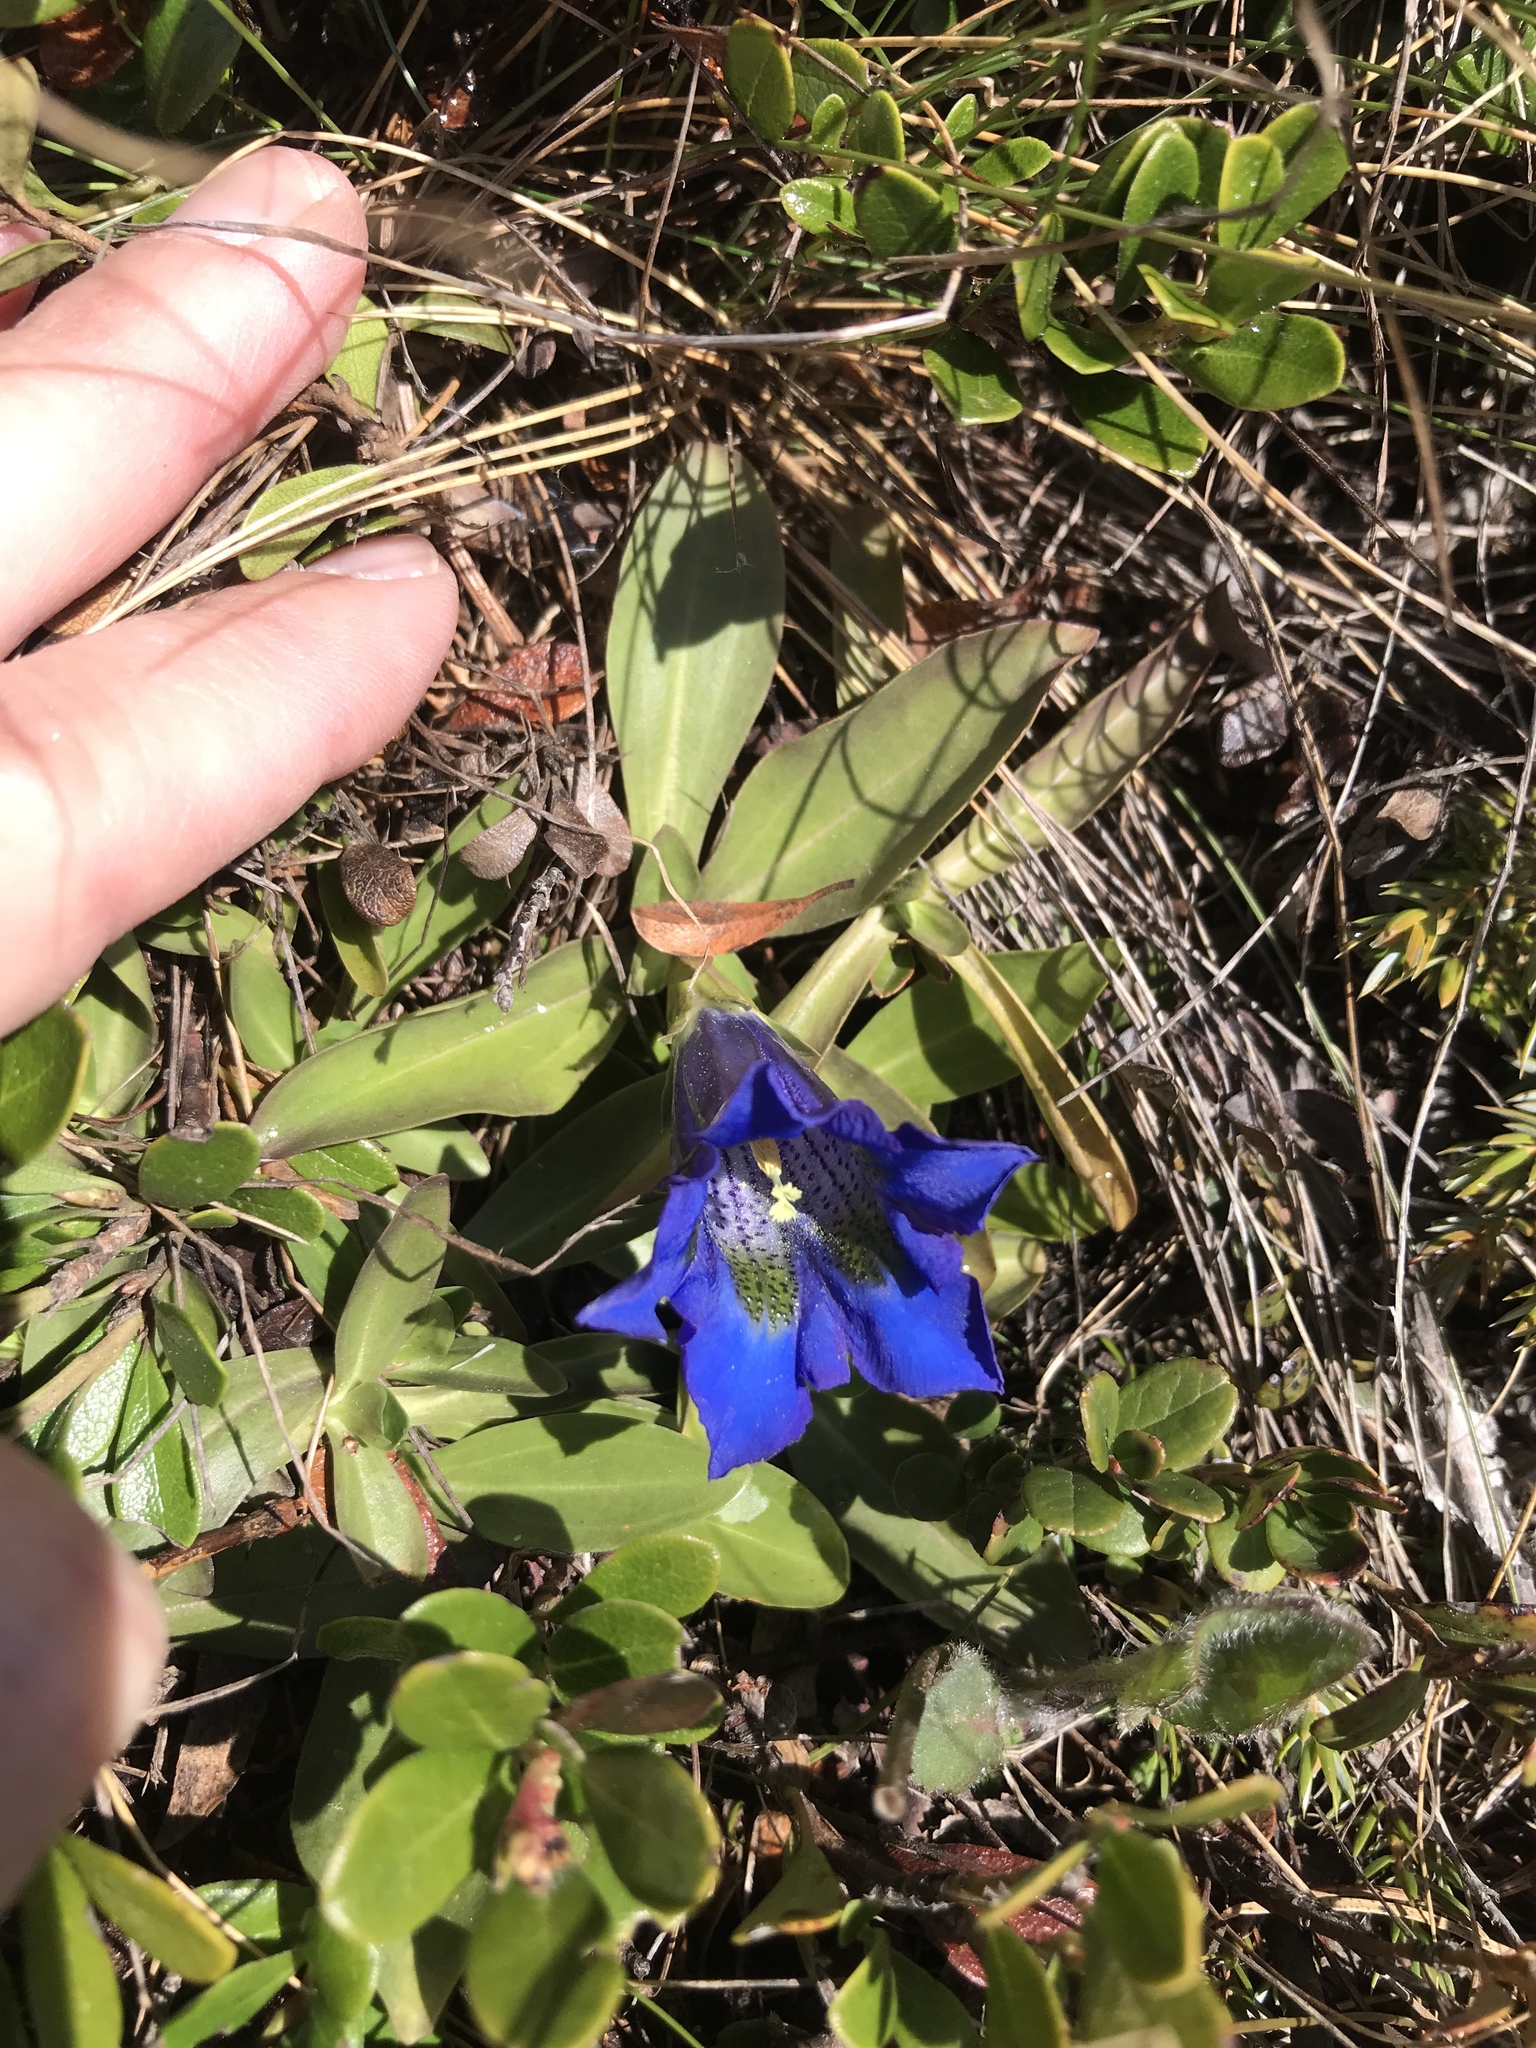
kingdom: Plantae
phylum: Tracheophyta
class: Magnoliopsida
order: Gentianales
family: Gentianaceae
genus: Gentiana
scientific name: Gentiana acaulis
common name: Trumpet gentian
